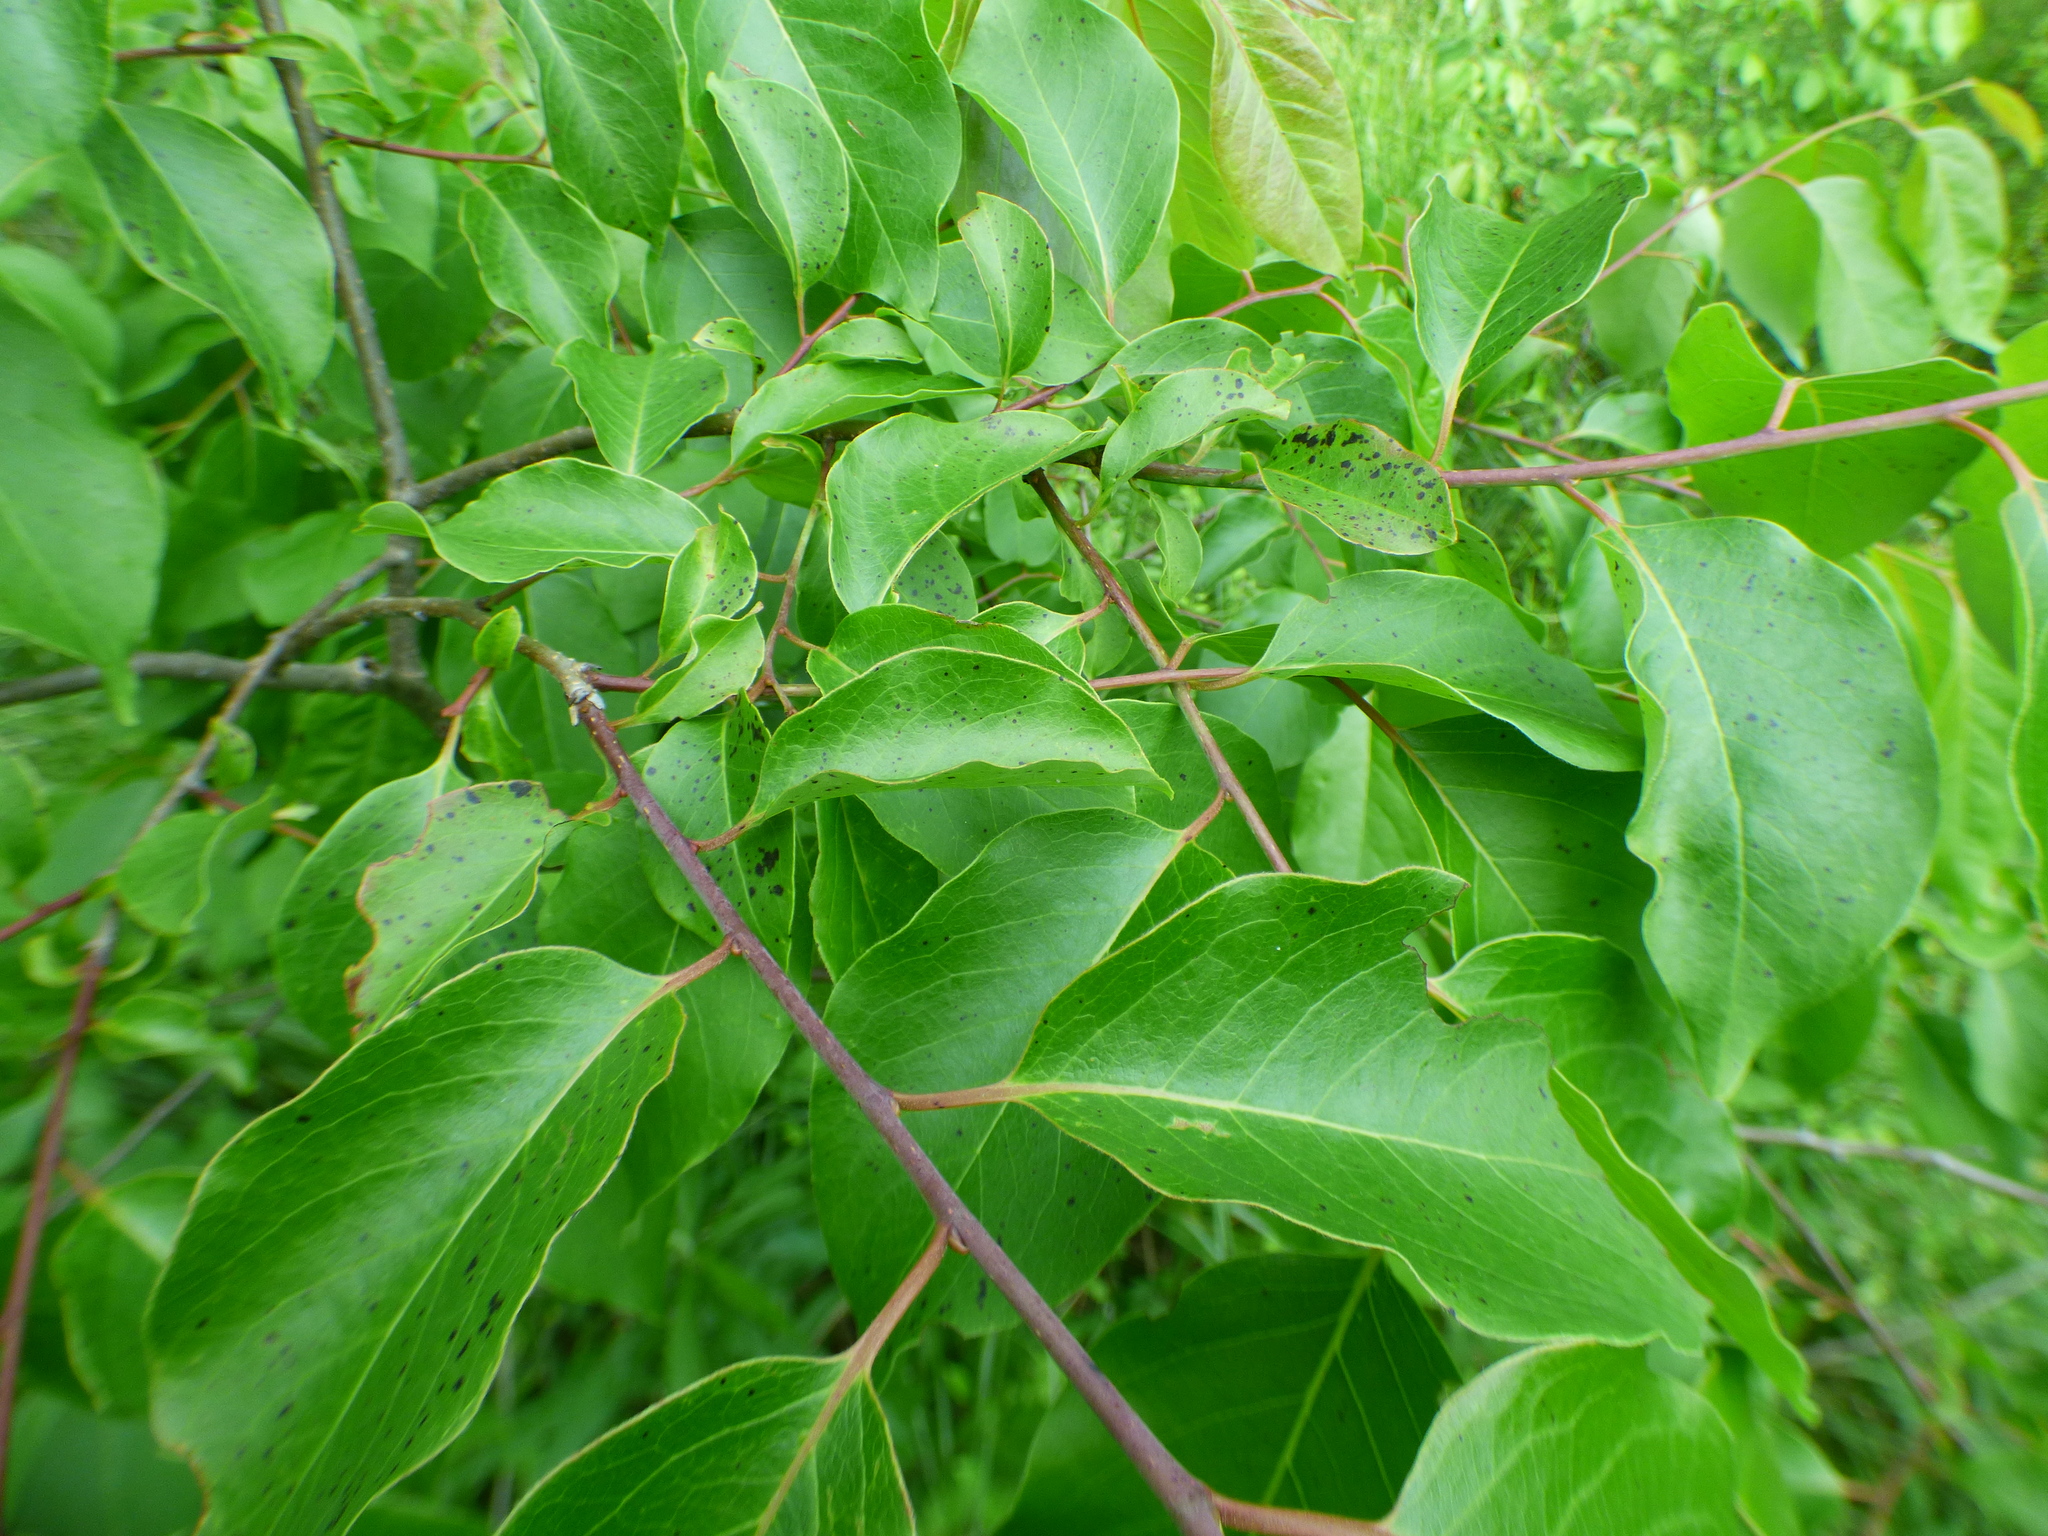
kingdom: Plantae
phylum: Tracheophyta
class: Magnoliopsida
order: Ericales
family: Ebenaceae
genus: Diospyros
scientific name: Diospyros virginiana
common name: Persimmon
